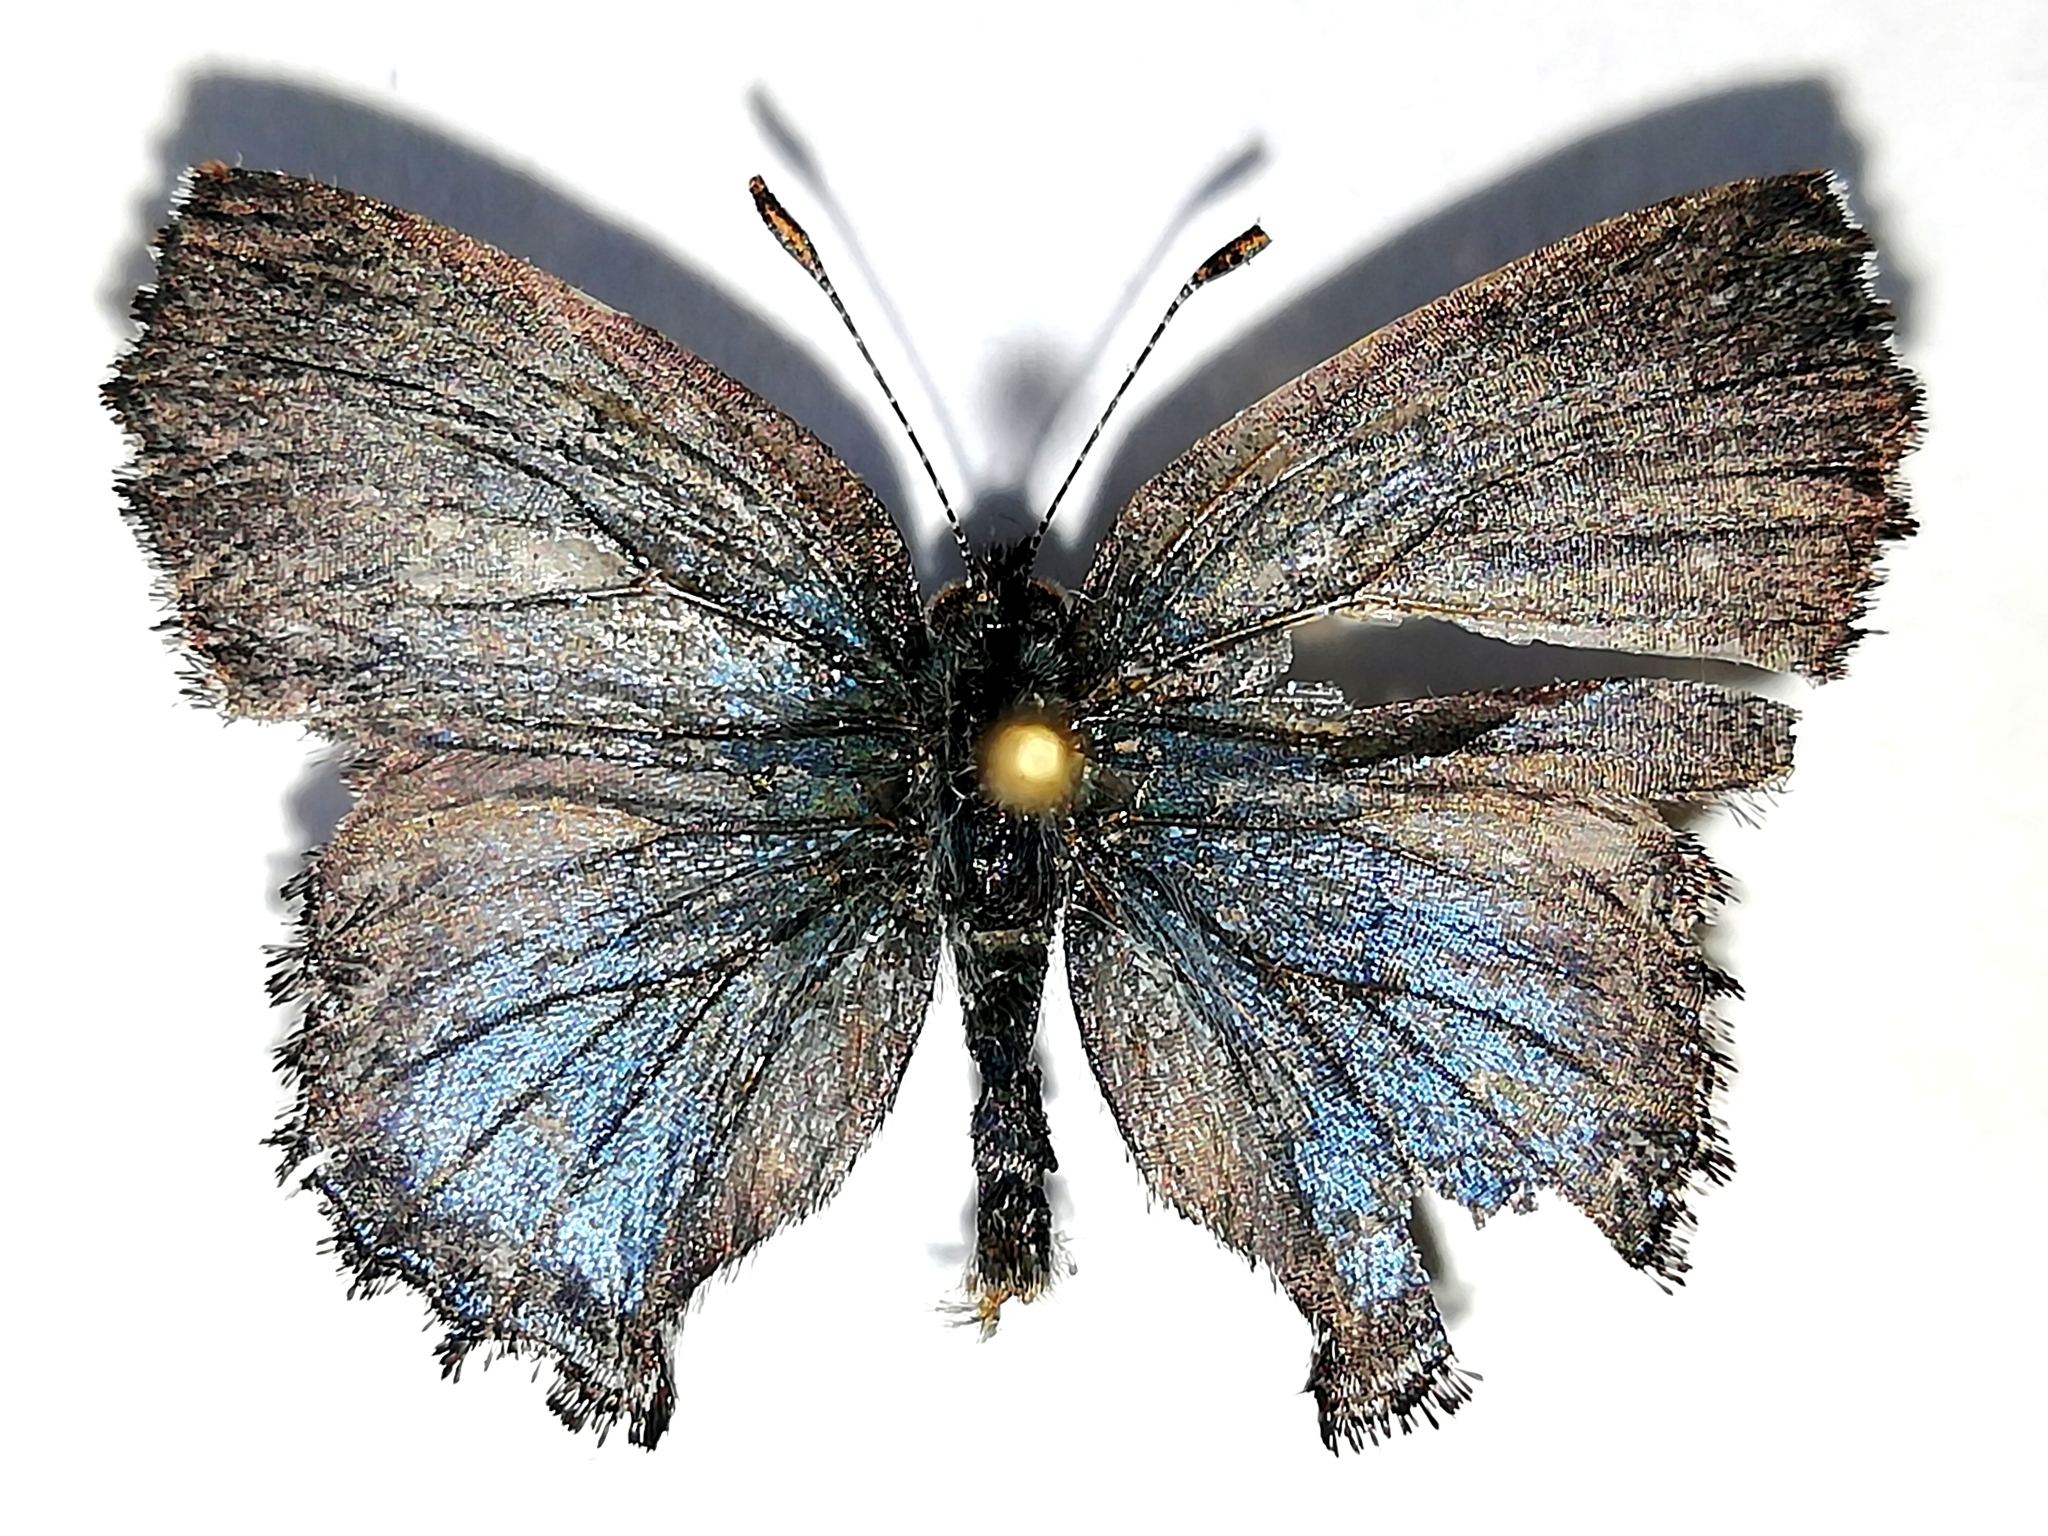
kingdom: Animalia
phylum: Arthropoda
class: Insecta
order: Lepidoptera
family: Lycaenidae
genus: Ginzia
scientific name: Ginzia Ahlbergia frivaldszkyi
